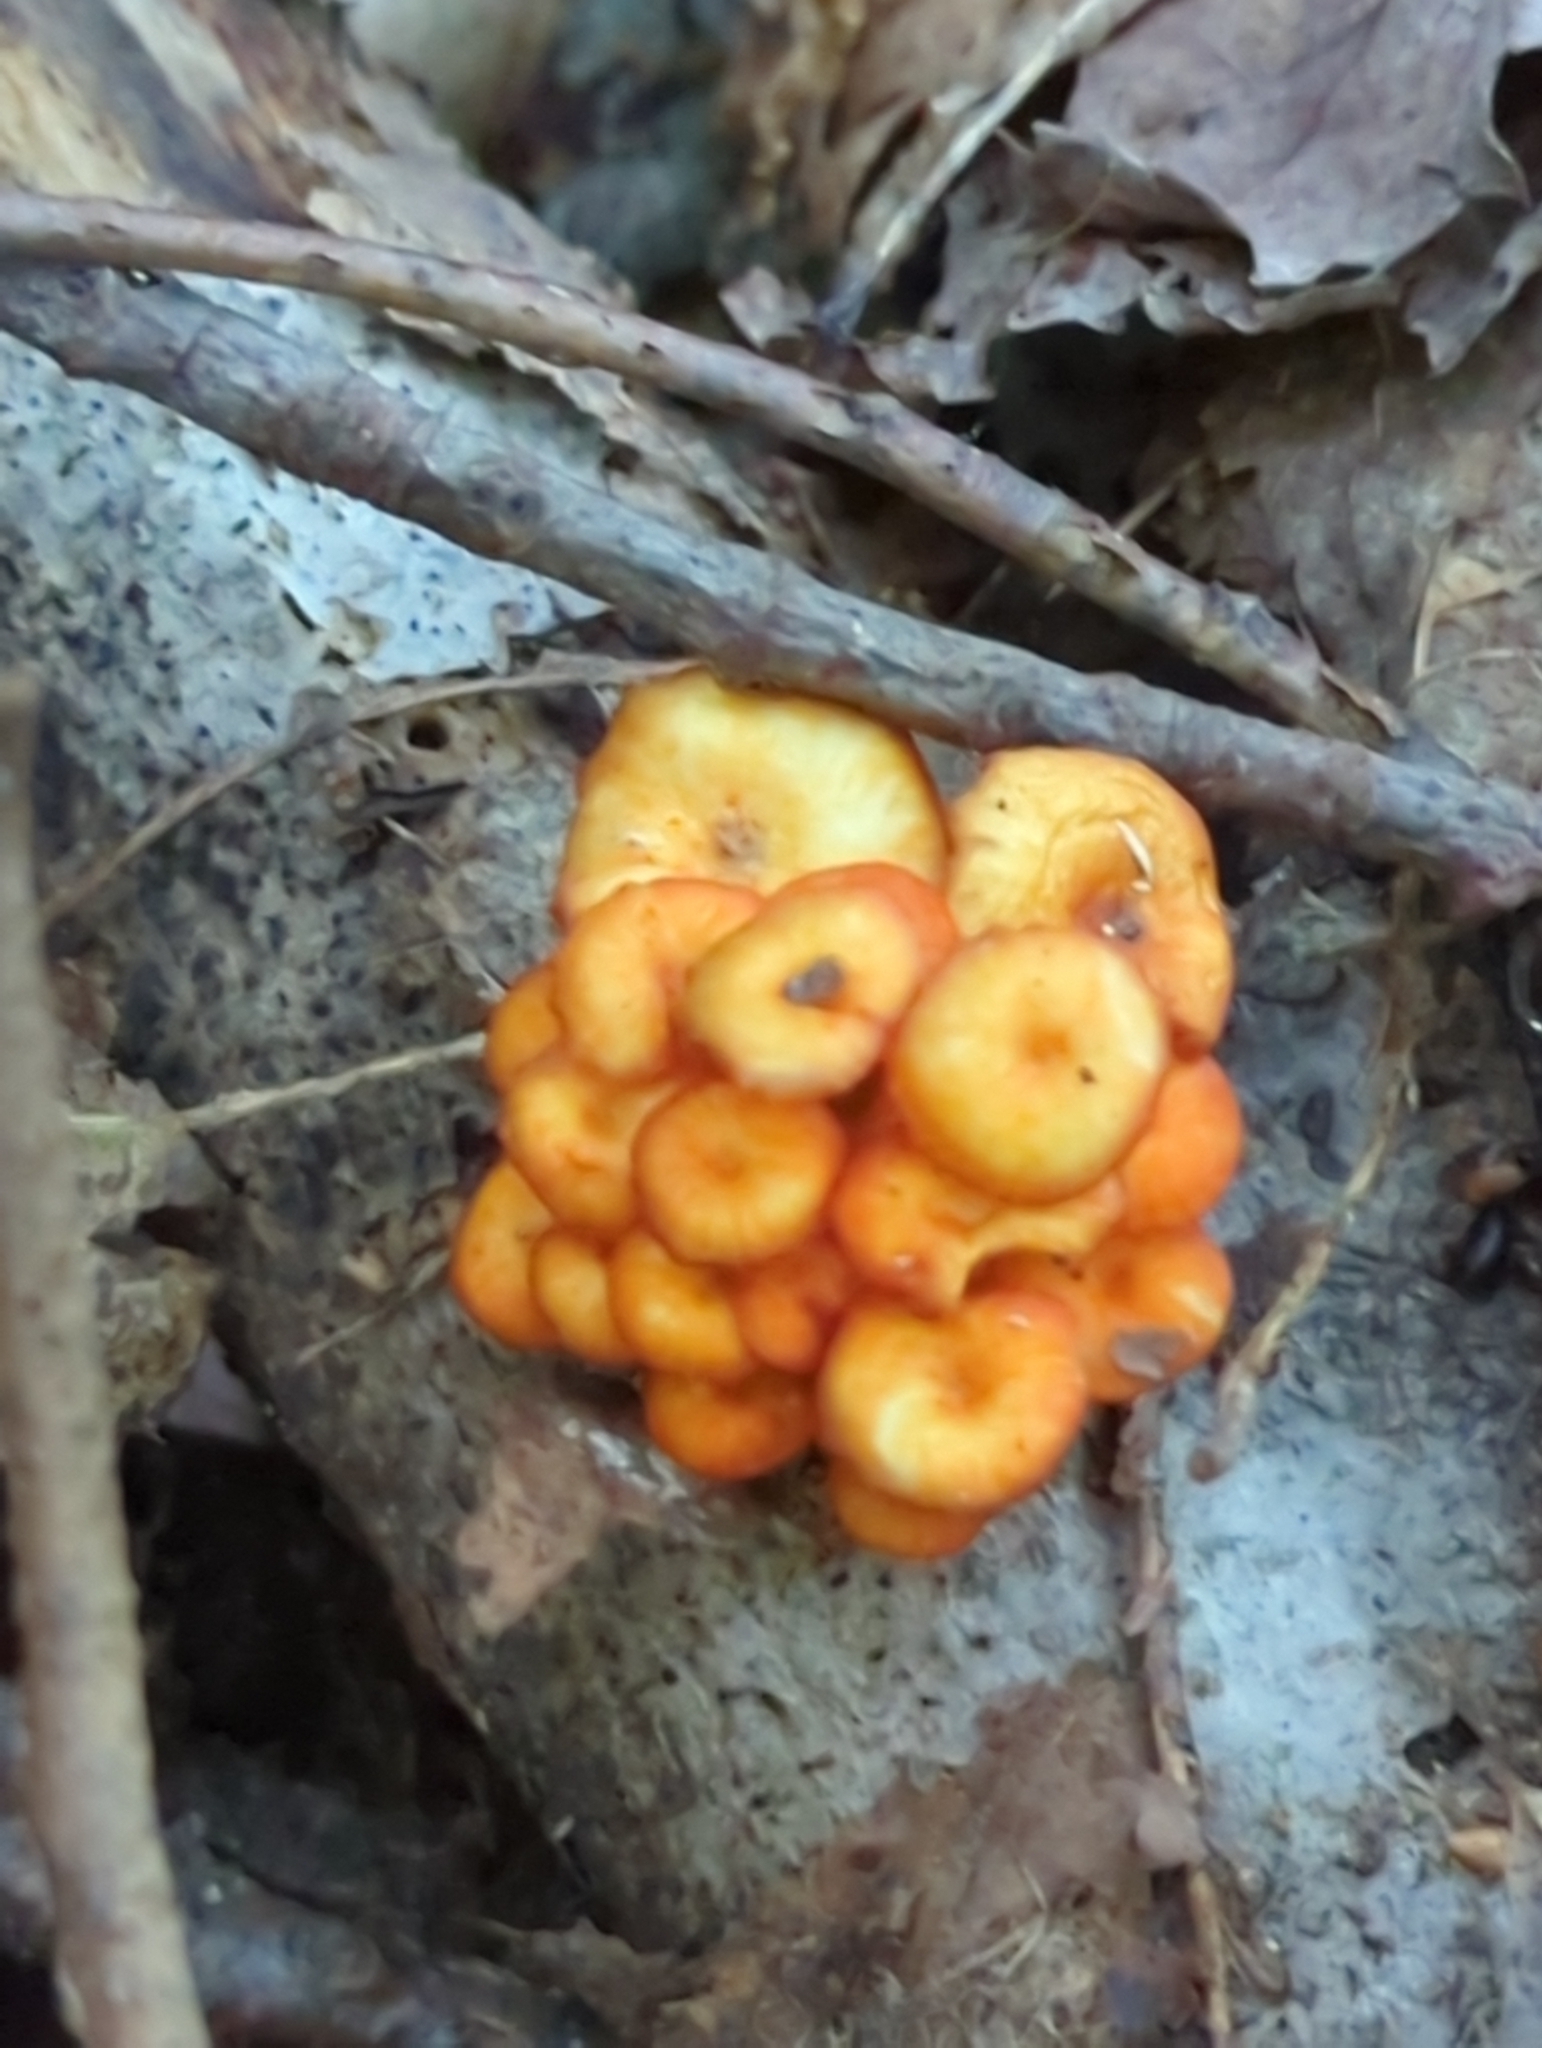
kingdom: Fungi
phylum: Basidiomycota
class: Agaricomycetes
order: Agaricales
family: Mycenaceae
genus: Mycena
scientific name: Mycena leaiana
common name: Orange mycena
